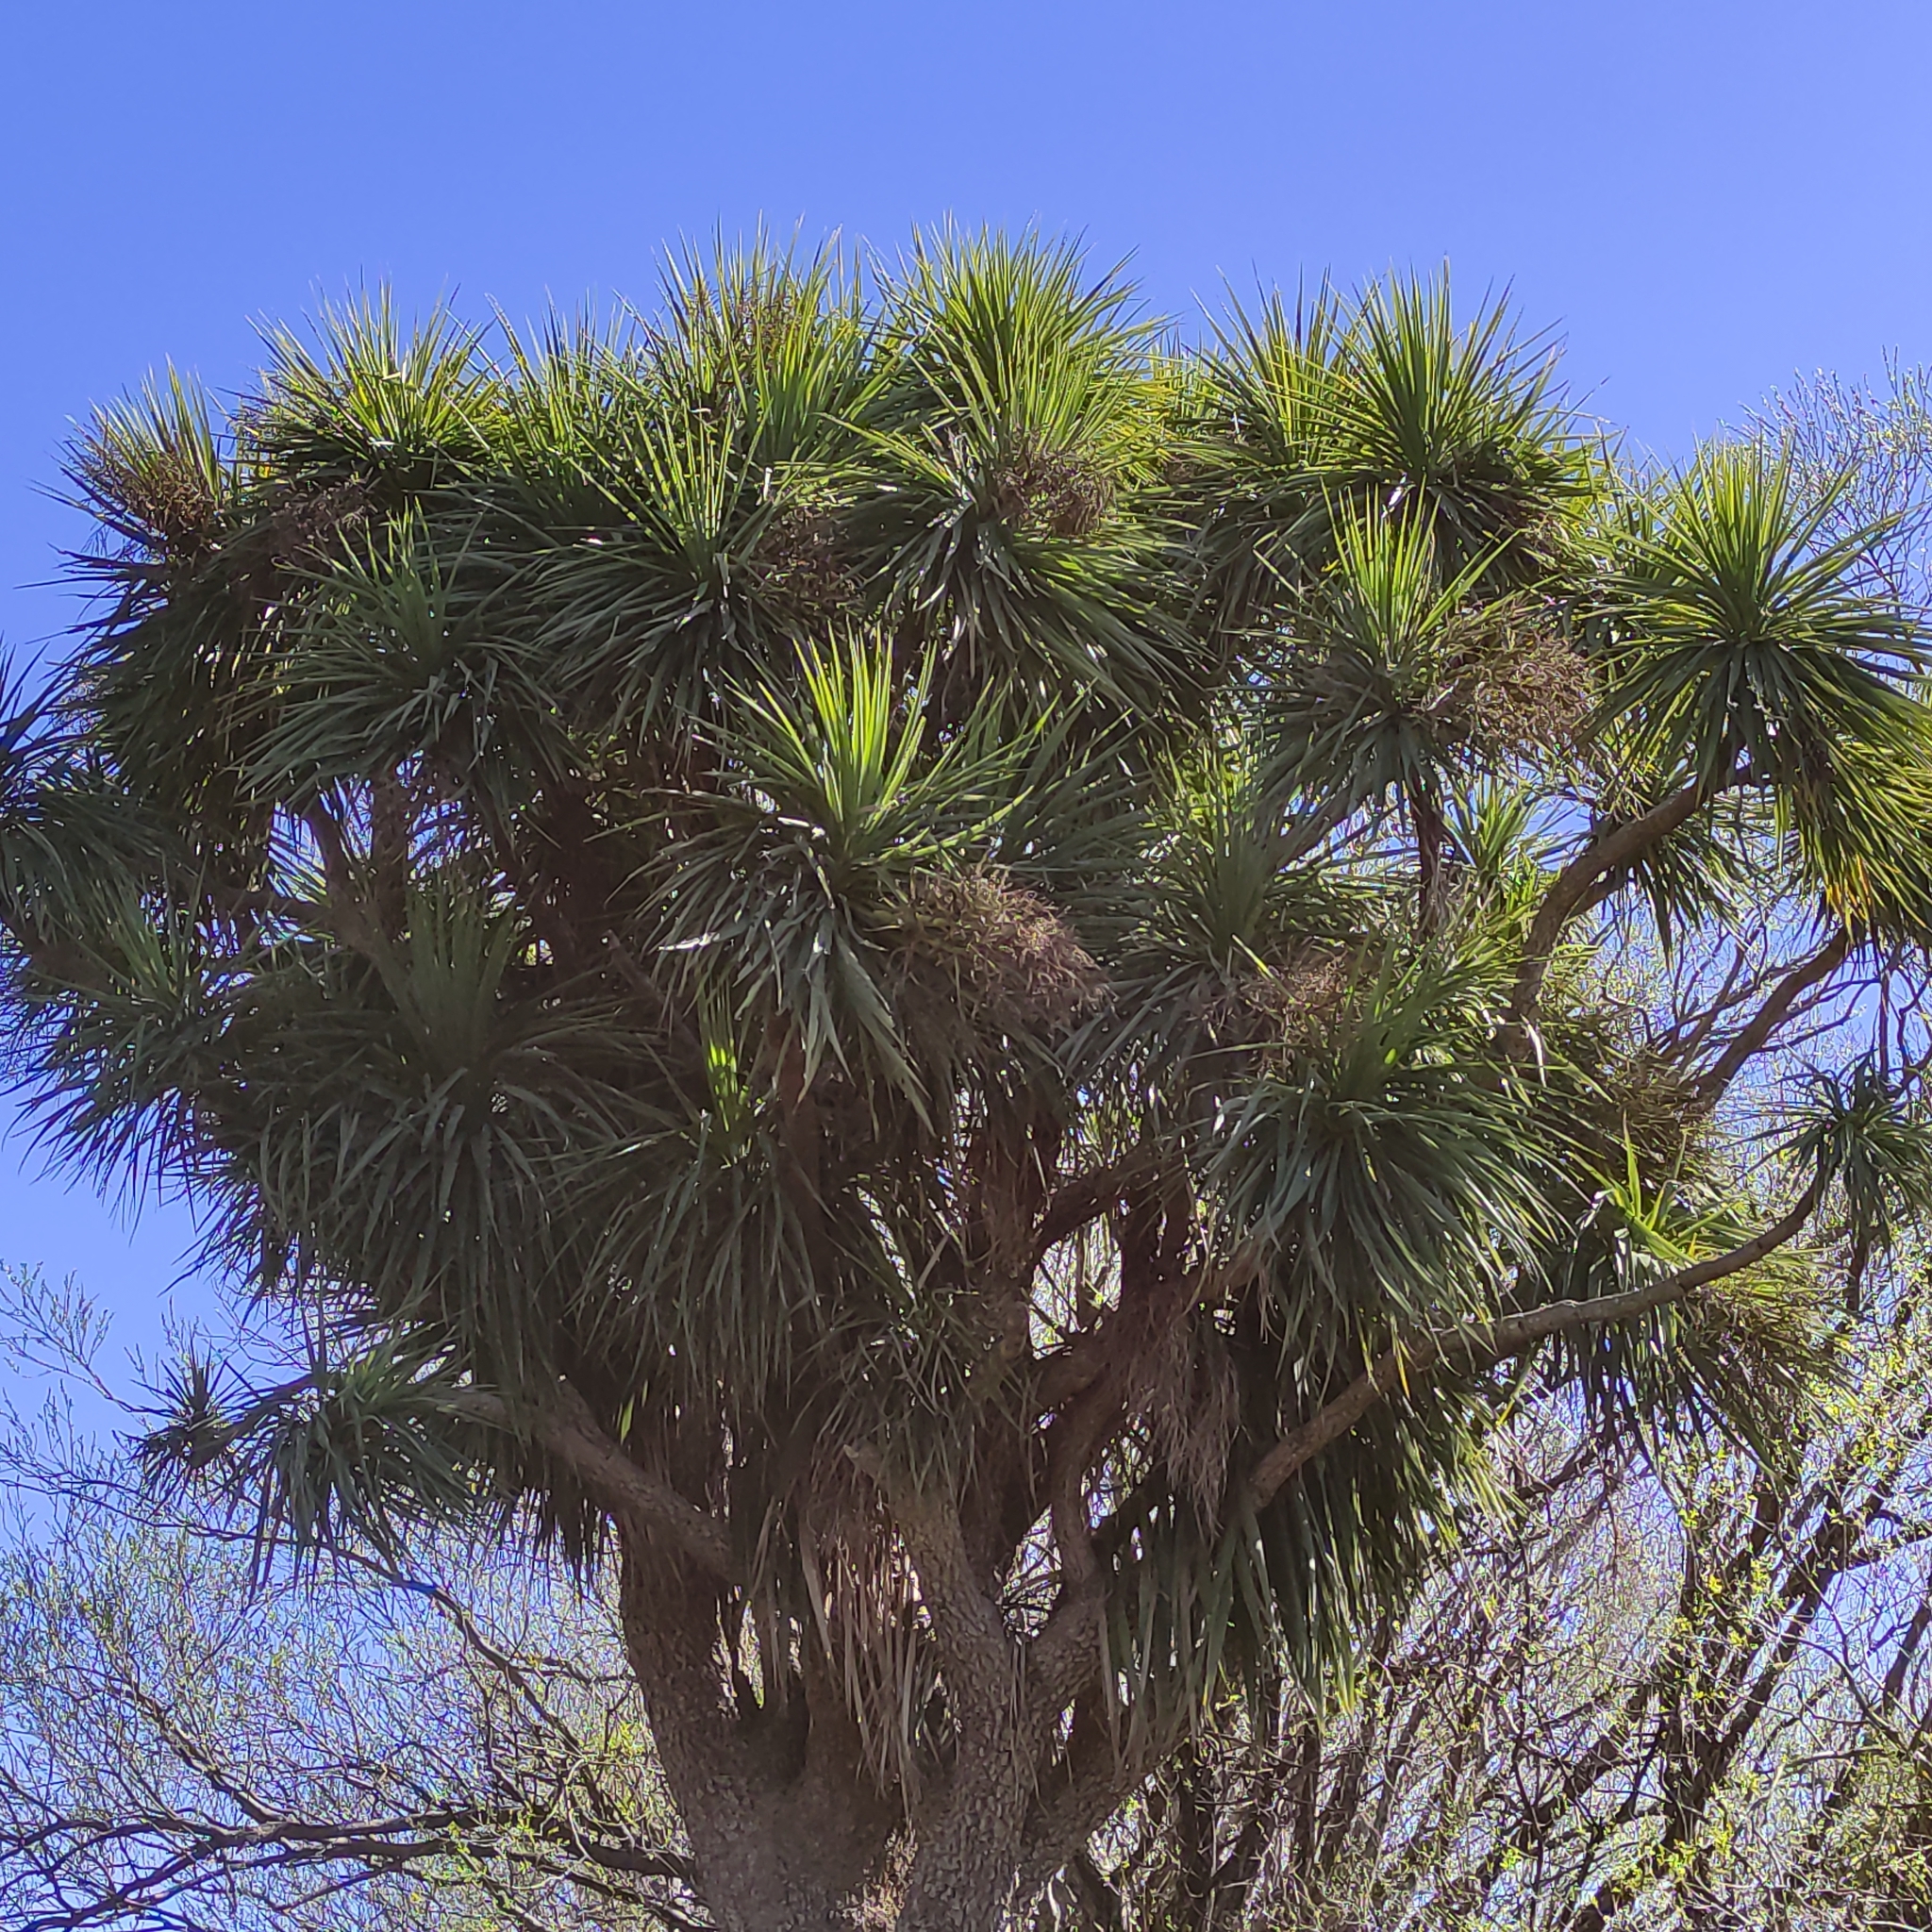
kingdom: Plantae
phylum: Tracheophyta
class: Liliopsida
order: Asparagales
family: Asparagaceae
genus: Cordyline
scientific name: Cordyline australis
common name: Cabbage-palm
